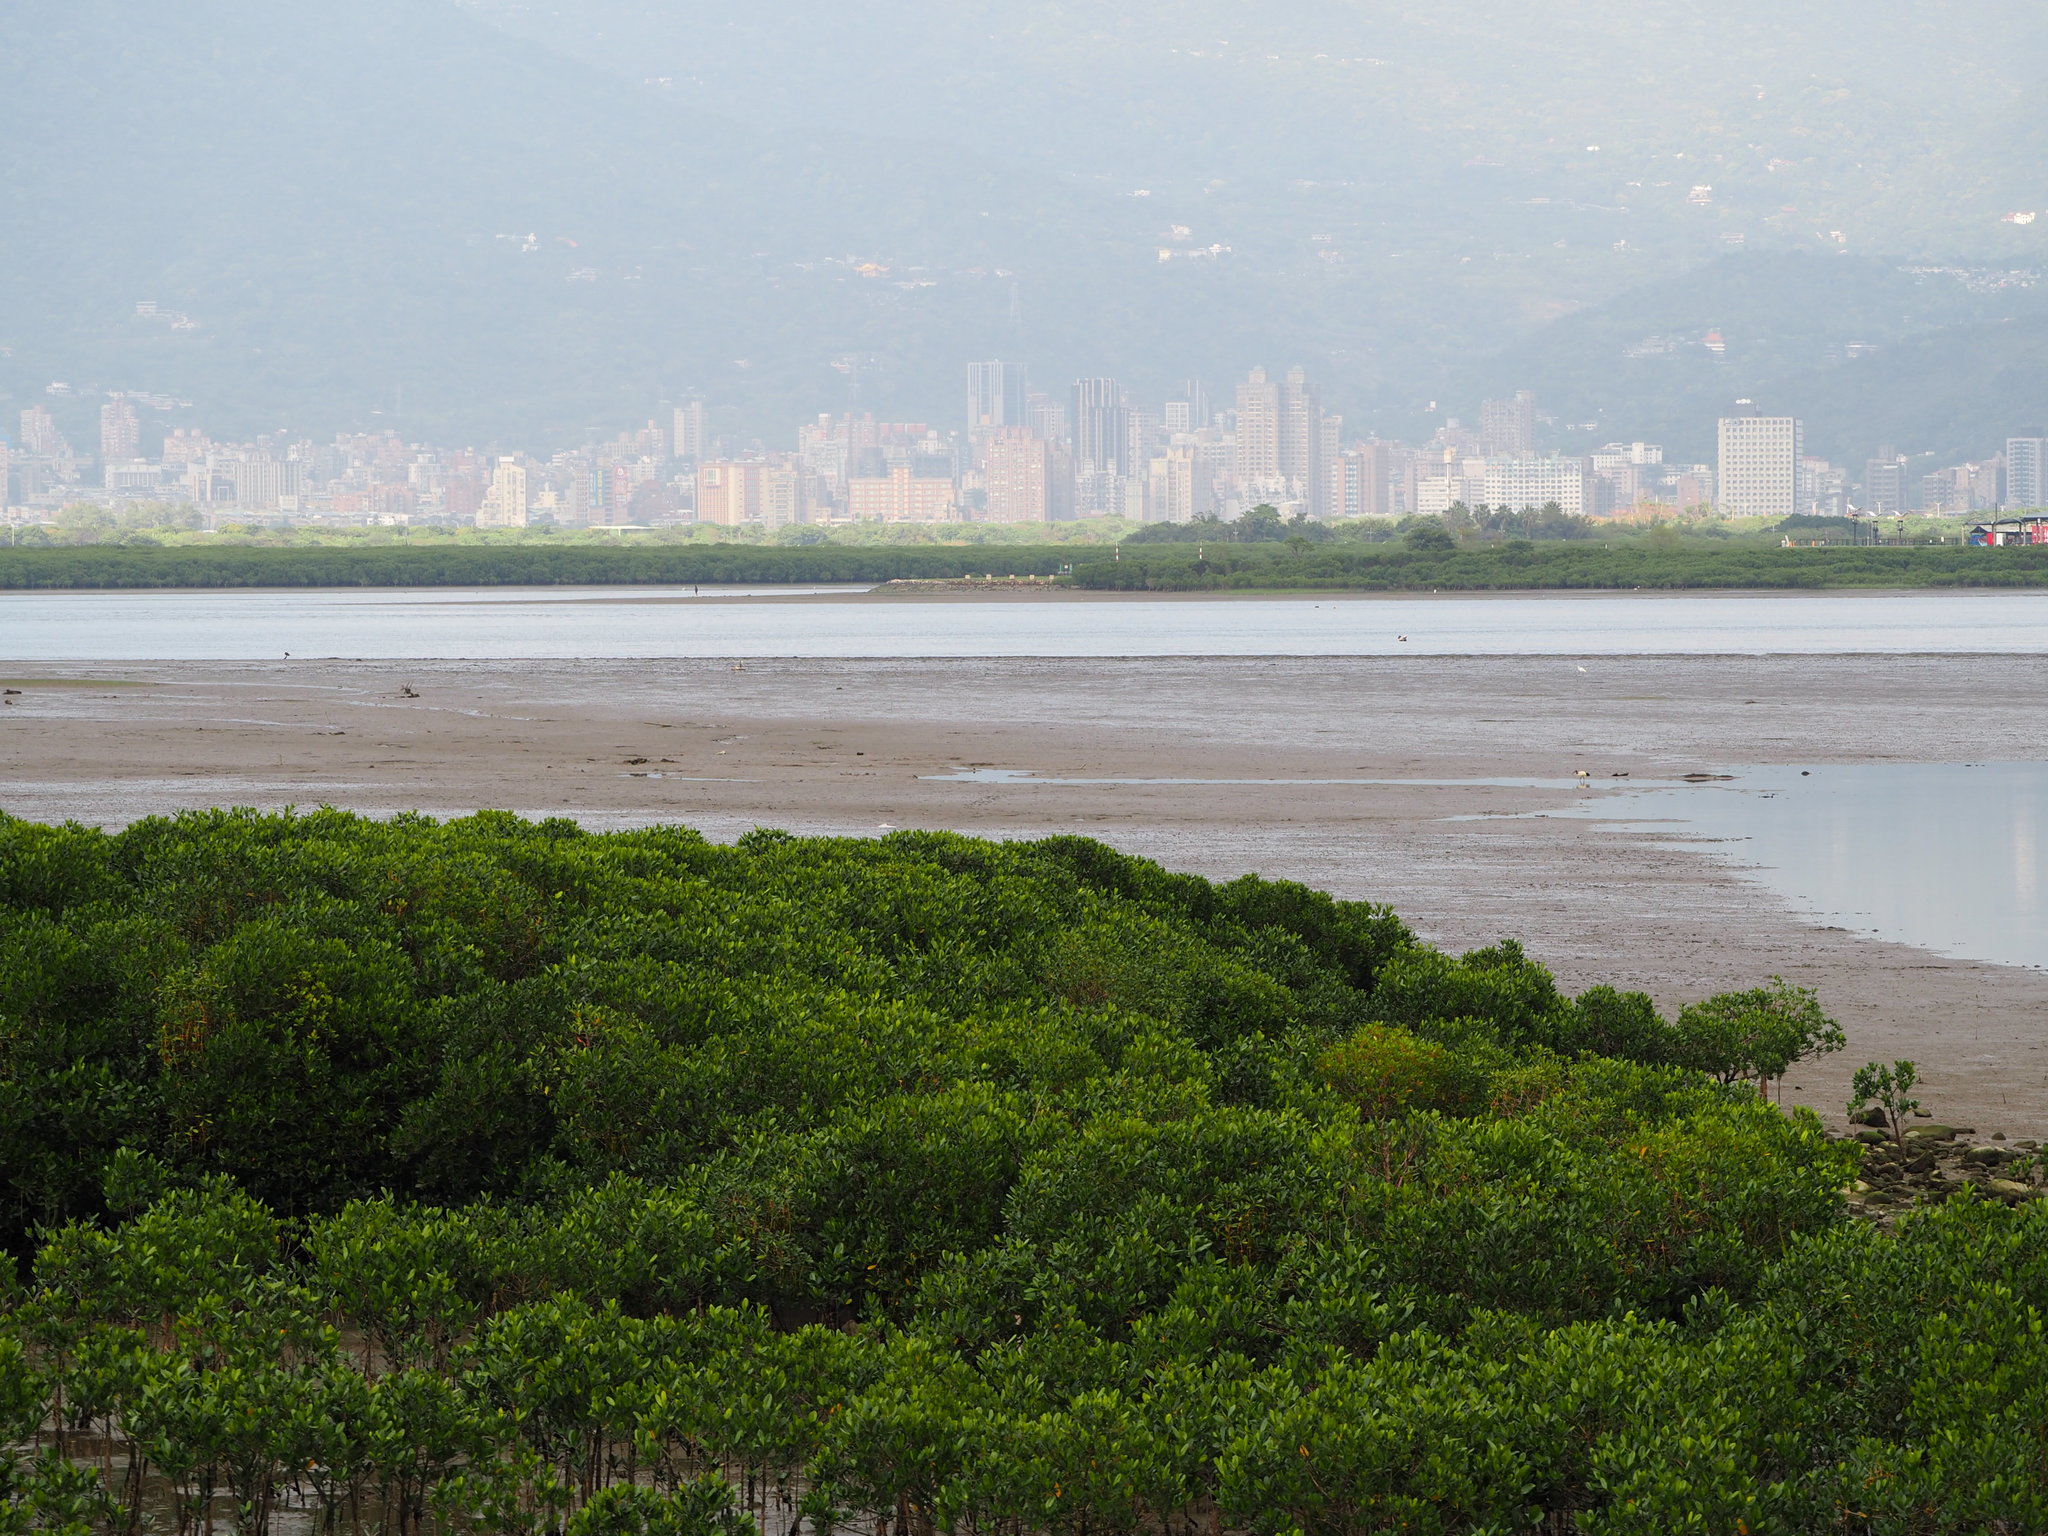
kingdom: Plantae
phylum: Tracheophyta
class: Magnoliopsida
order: Malpighiales
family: Rhizophoraceae
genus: Kandelia
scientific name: Kandelia obovata
